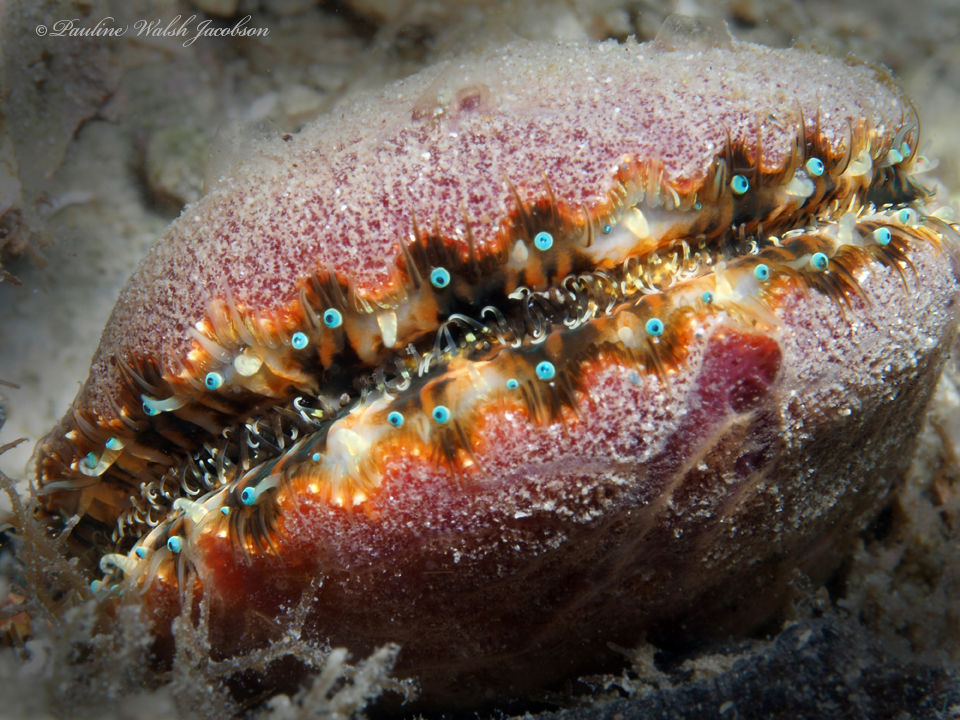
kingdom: Animalia
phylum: Mollusca
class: Bivalvia
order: Pectinida
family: Pectinidae
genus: Lindapecten
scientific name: Lindapecten exasperatus
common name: Thistle scallop
